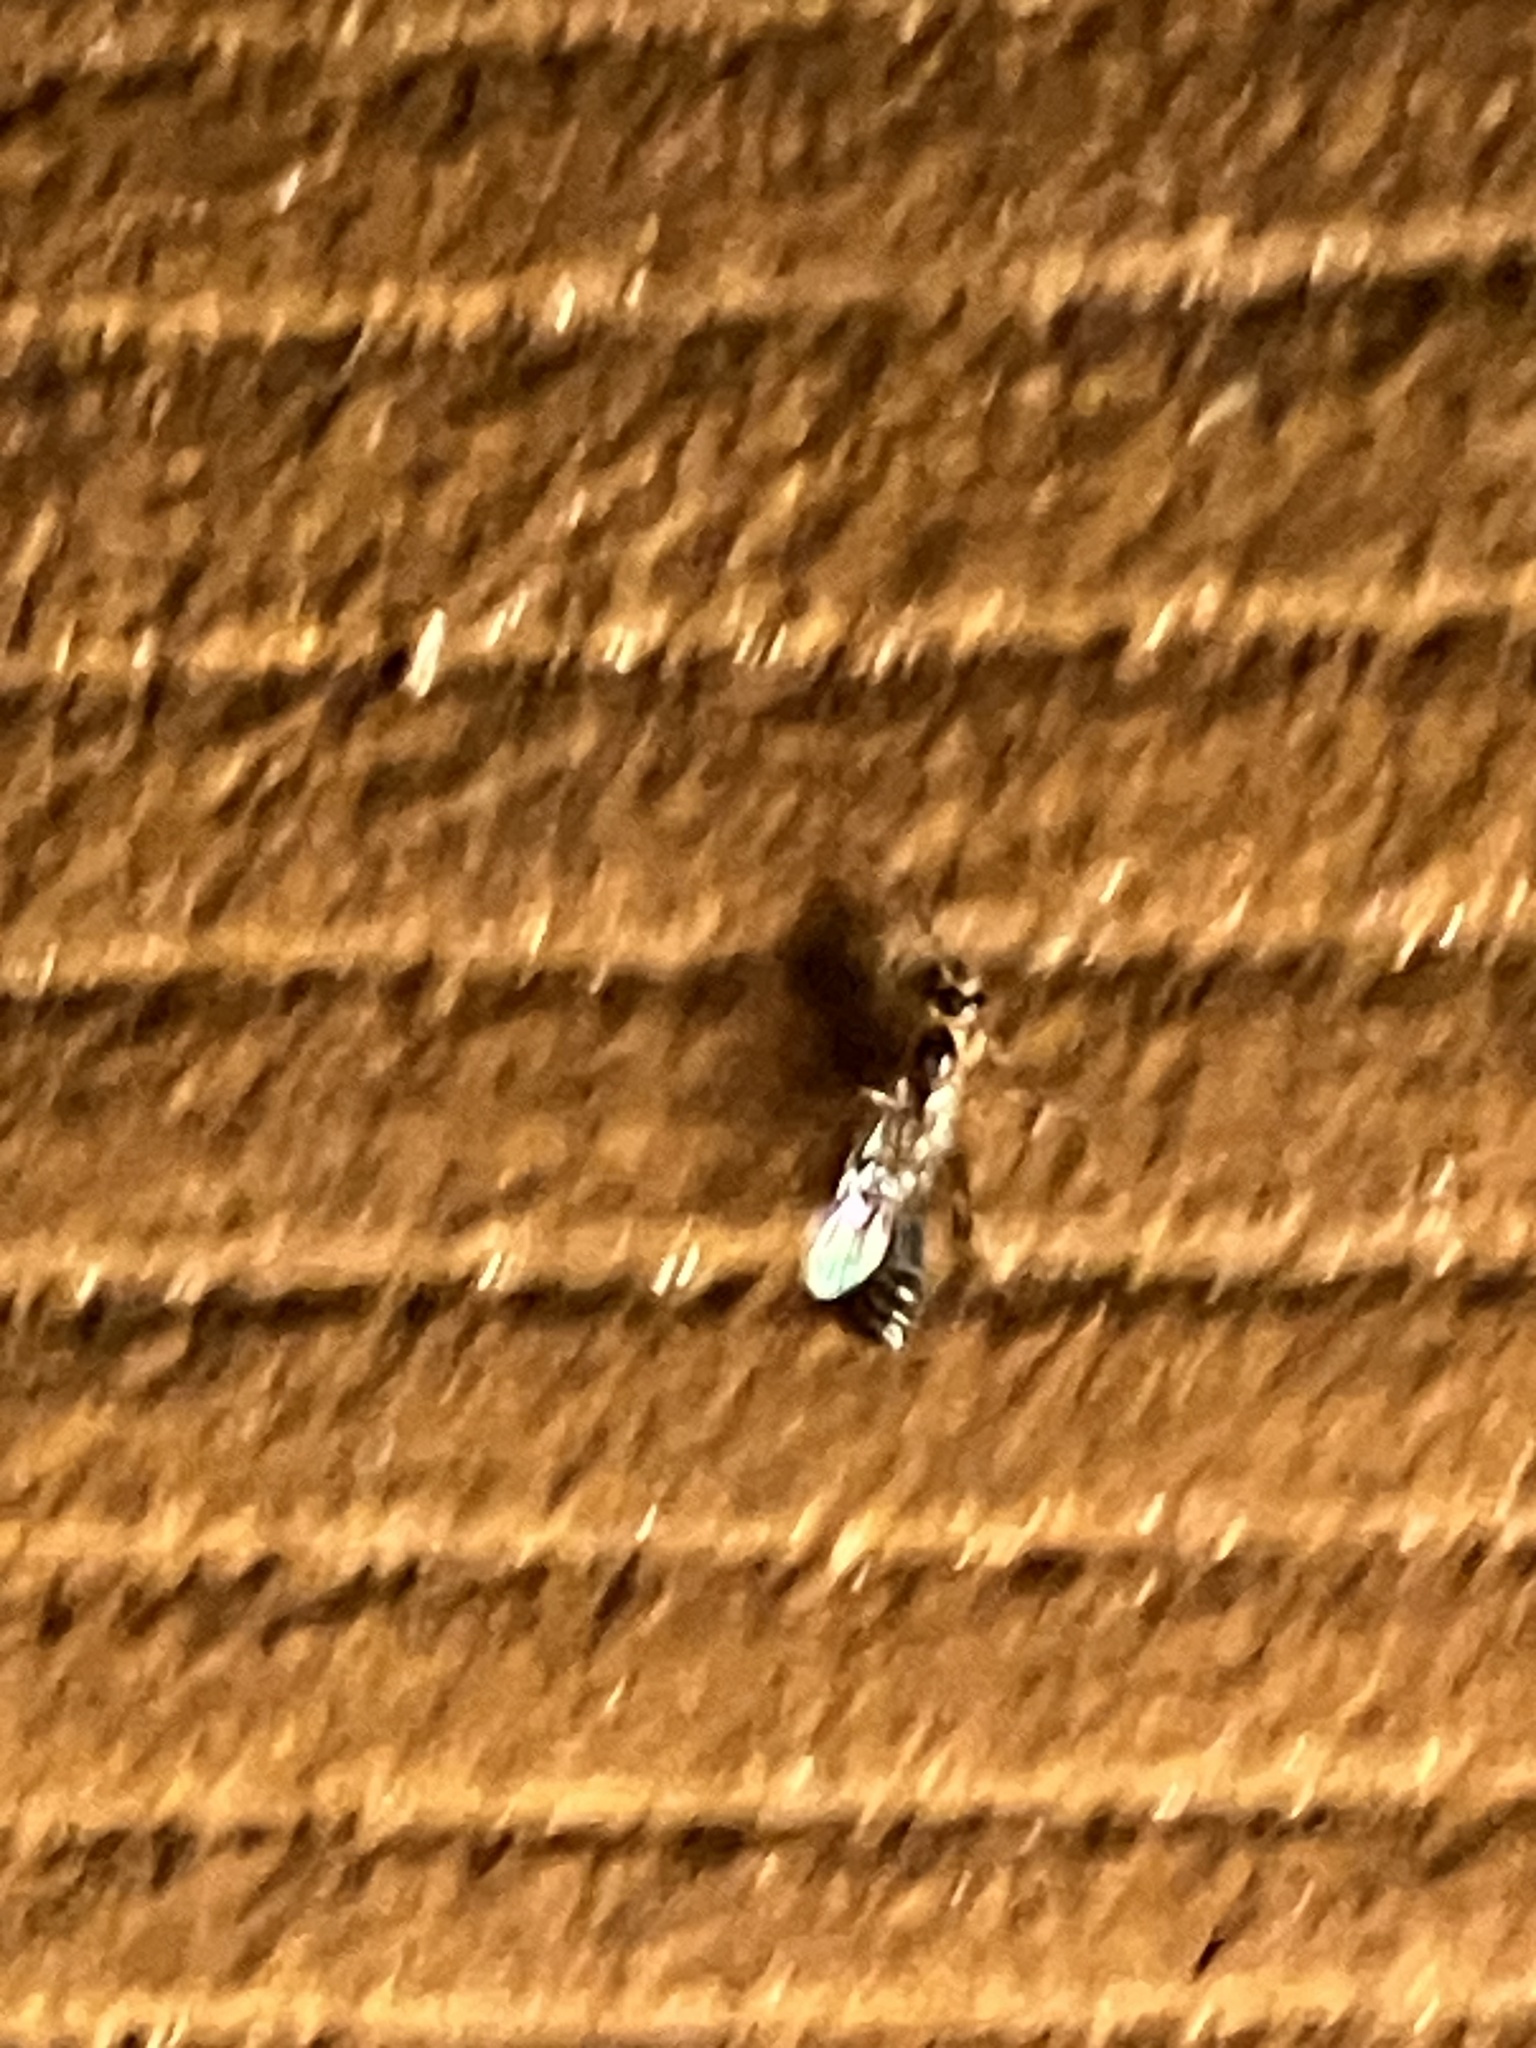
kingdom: Animalia
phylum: Arthropoda
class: Insecta
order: Hymenoptera
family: Formicidae
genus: Pseudomyrmex
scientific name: Pseudomyrmex gracilis
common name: Graceful twig ant
